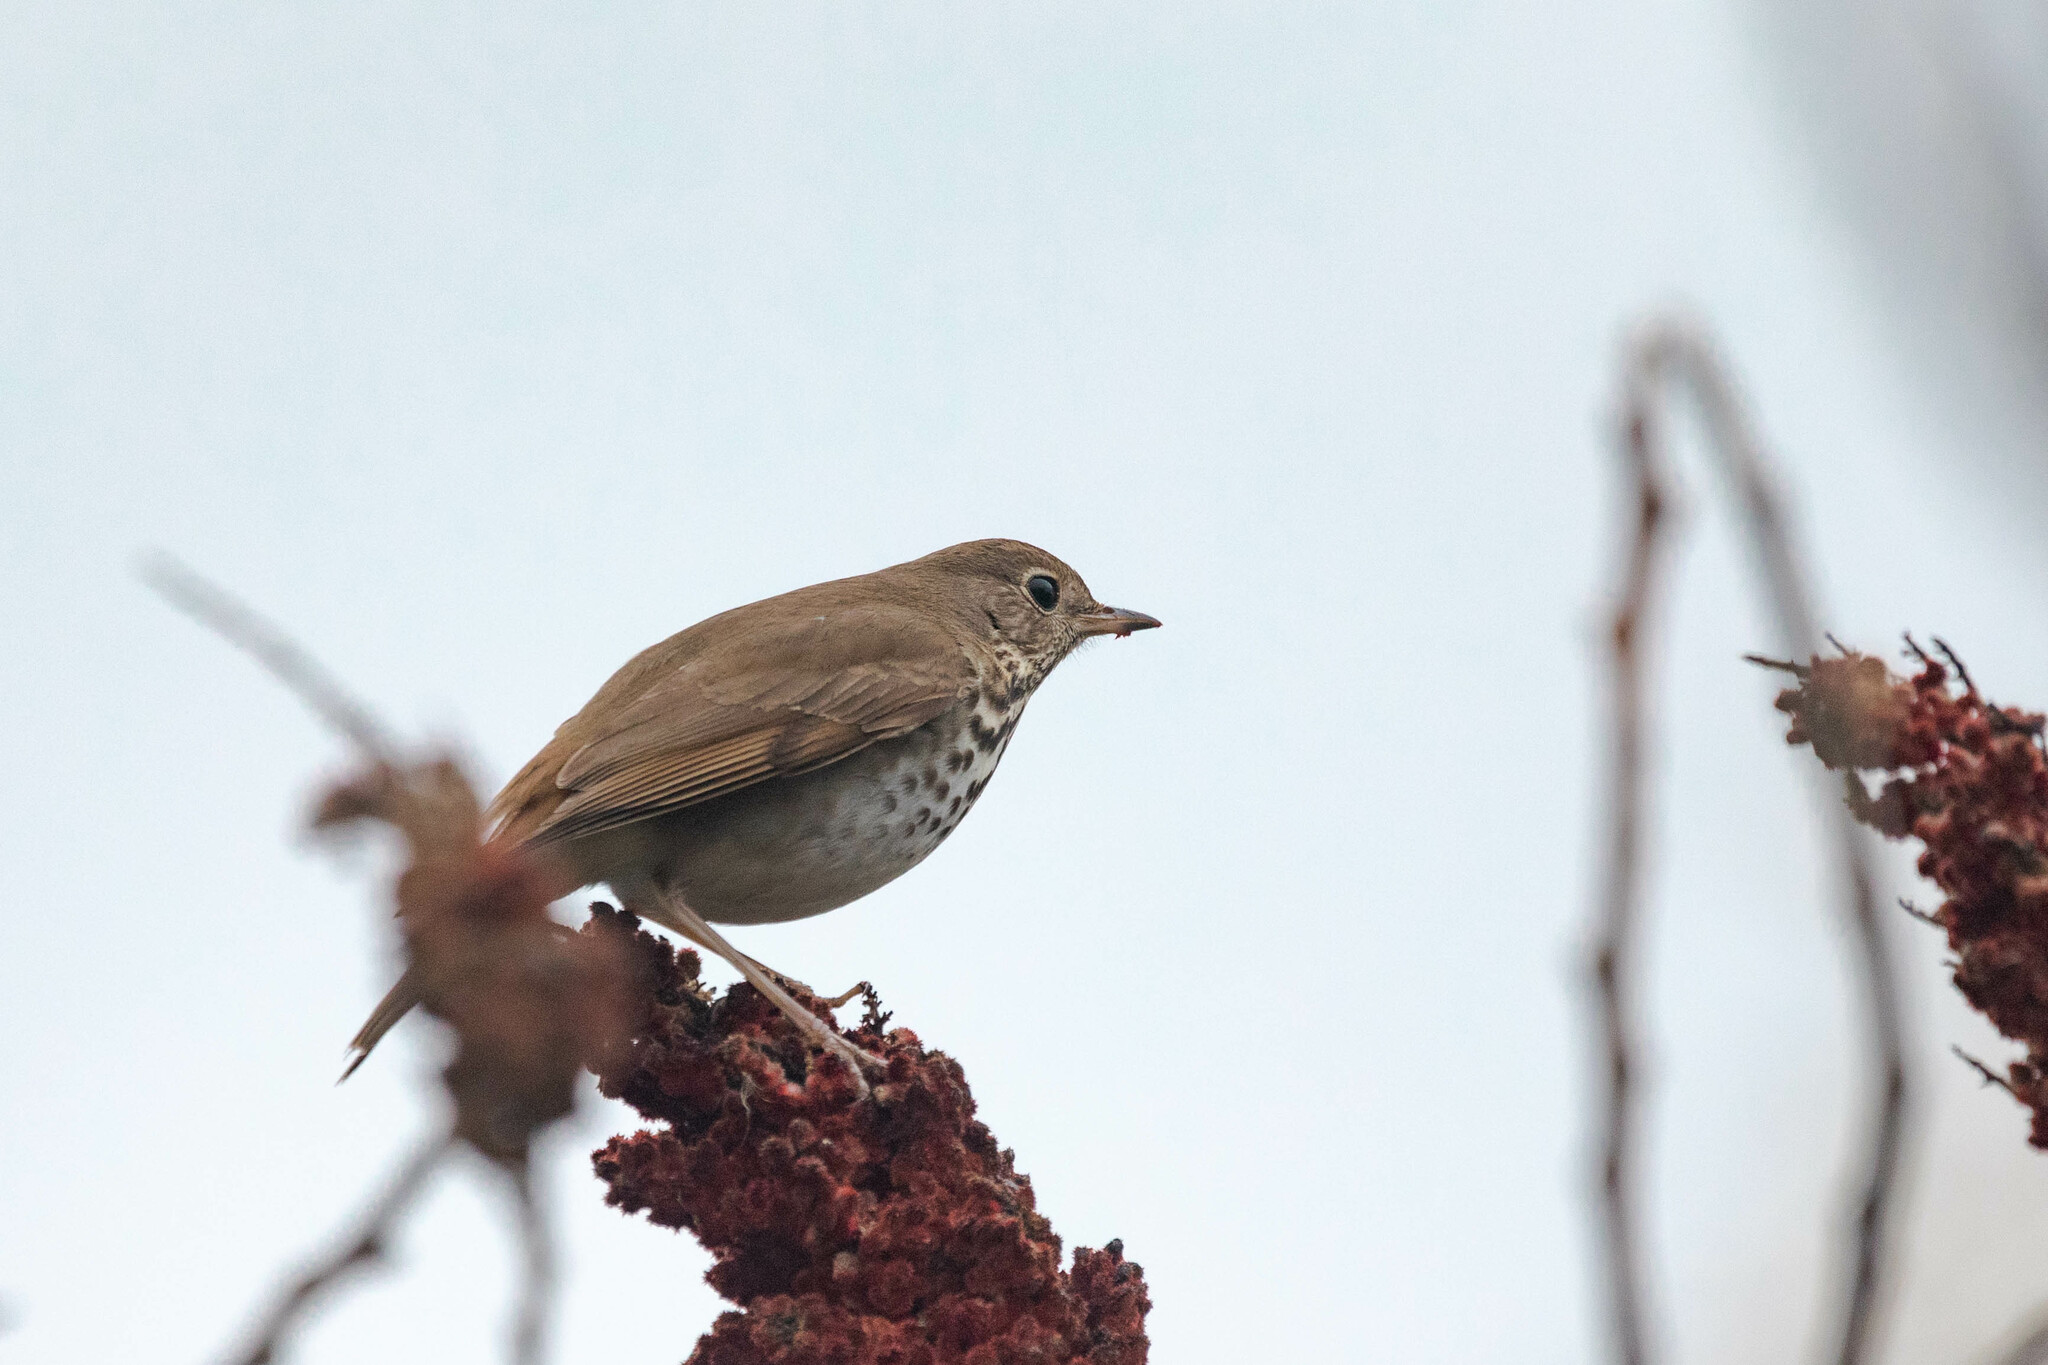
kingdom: Animalia
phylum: Chordata
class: Aves
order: Passeriformes
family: Turdidae
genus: Catharus
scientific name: Catharus guttatus
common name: Hermit thrush
